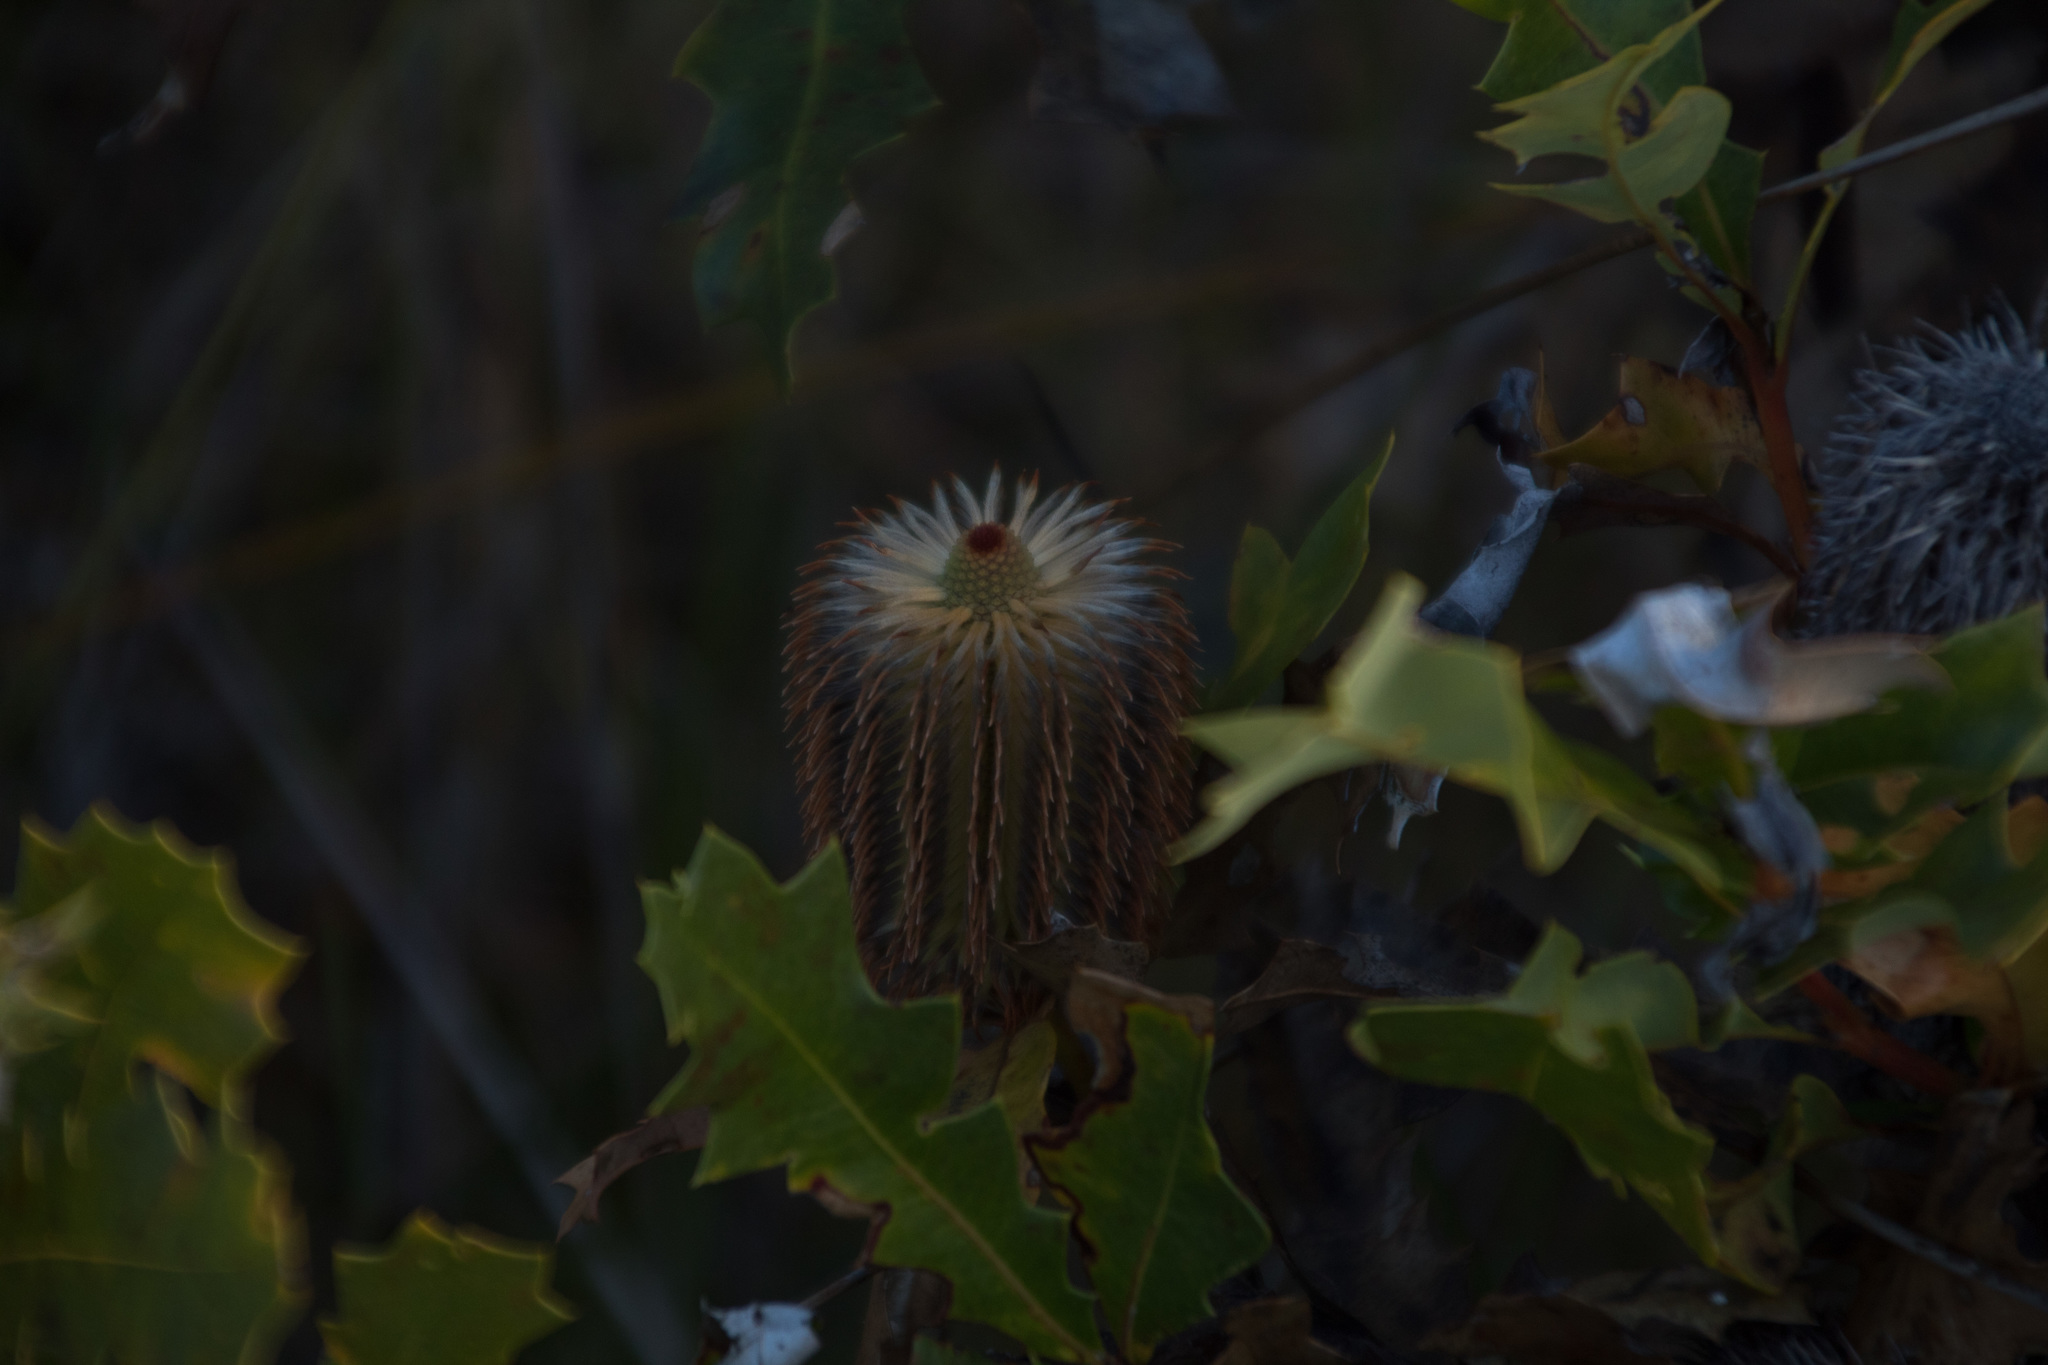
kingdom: Plantae
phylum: Tracheophyta
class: Magnoliopsida
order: Proteales
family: Proteaceae
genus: Banksia
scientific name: Banksia quercifolia
